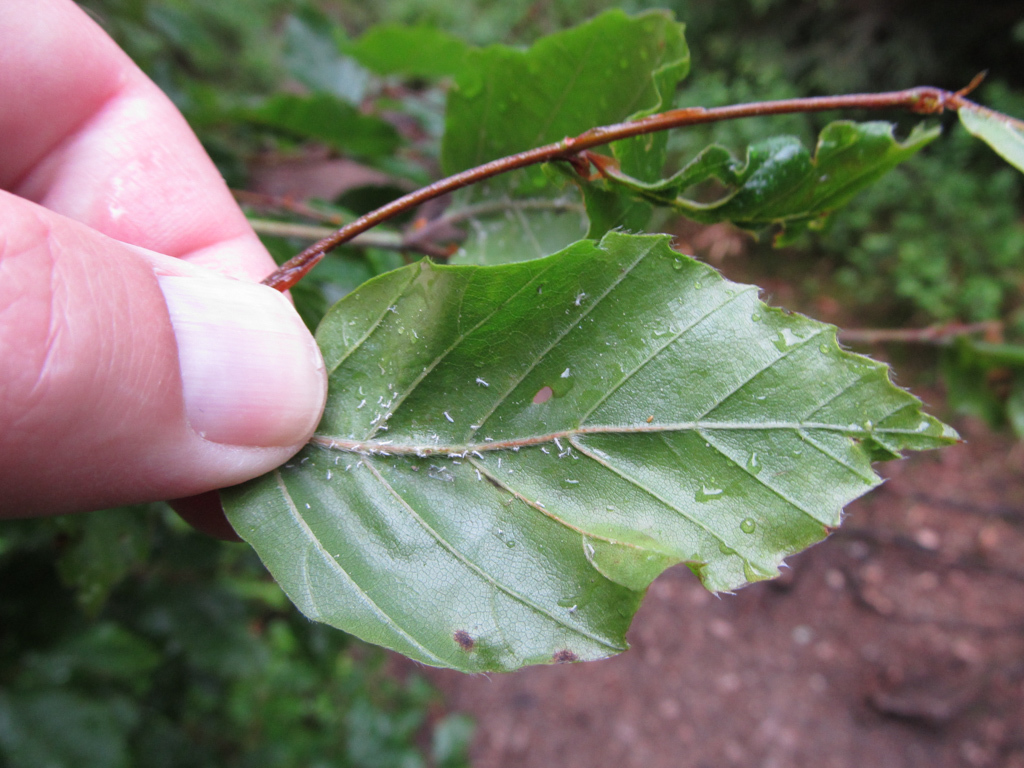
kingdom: Animalia
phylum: Arthropoda
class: Insecta
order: Hemiptera
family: Aphididae
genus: Phyllaphis
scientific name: Phyllaphis fagi
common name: Beech aphid
